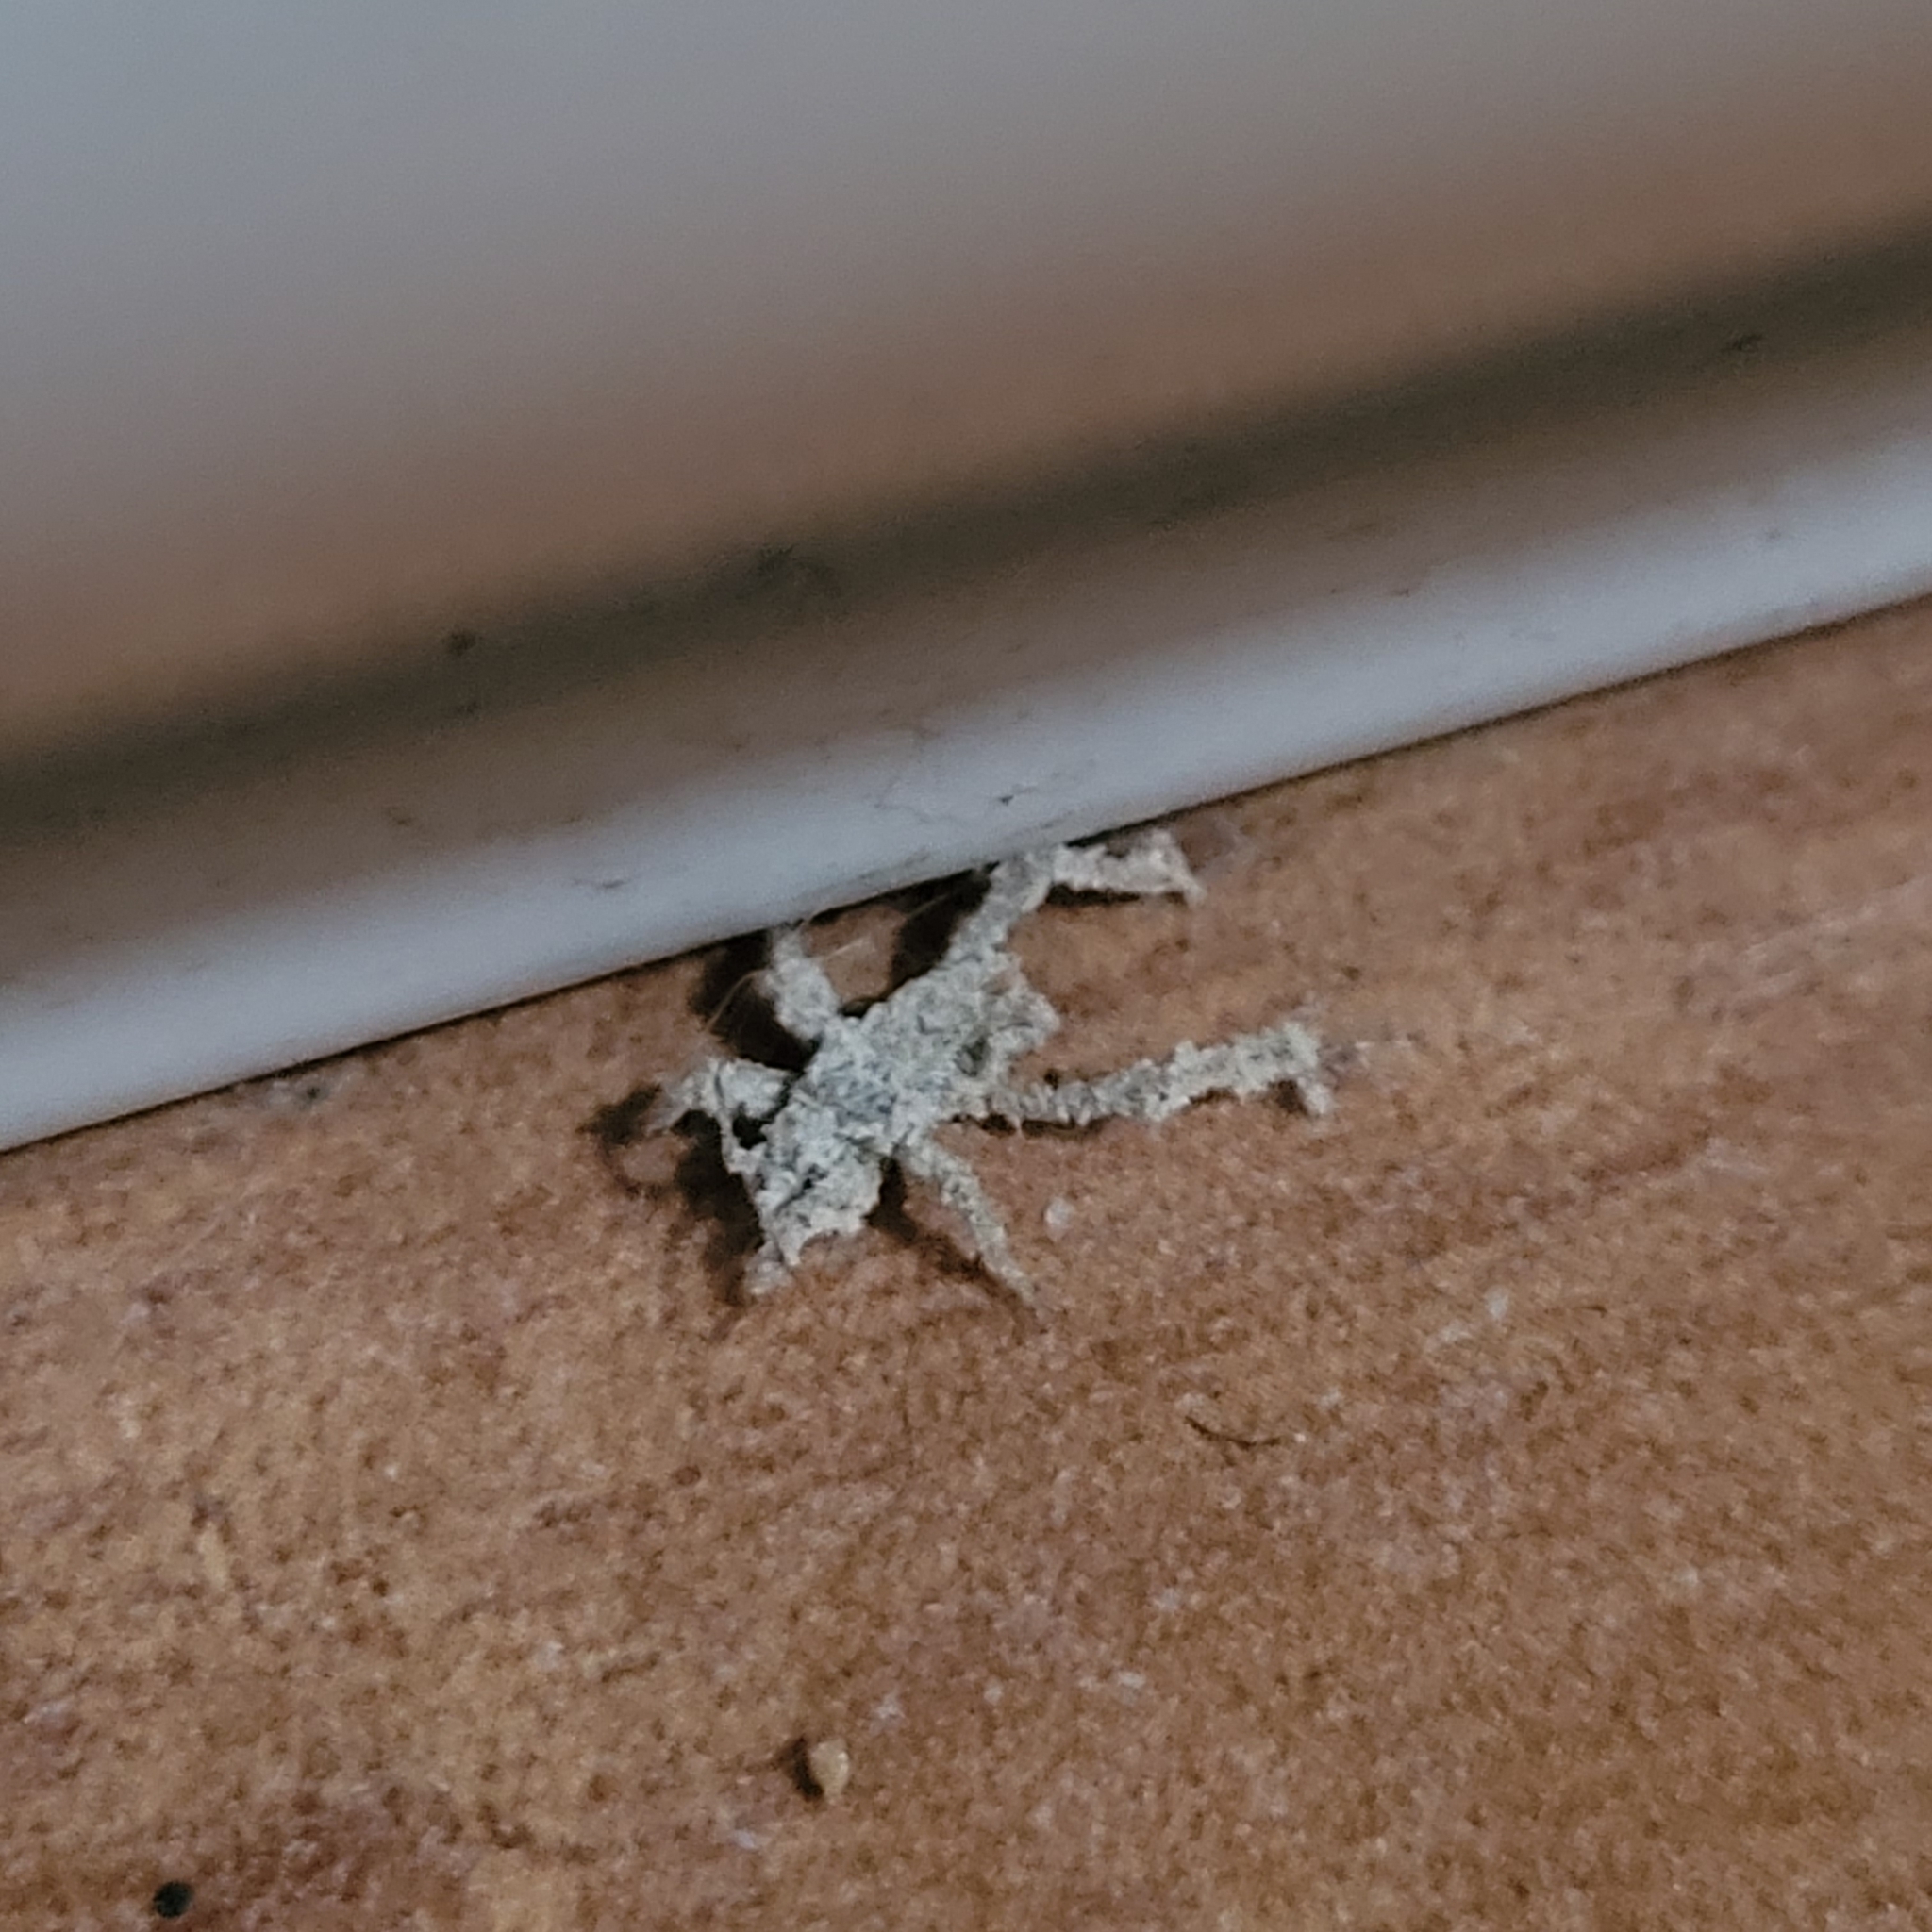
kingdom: Animalia
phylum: Arthropoda
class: Insecta
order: Hemiptera
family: Reduviidae
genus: Reduvius
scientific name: Reduvius personatus
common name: Masked hunter
